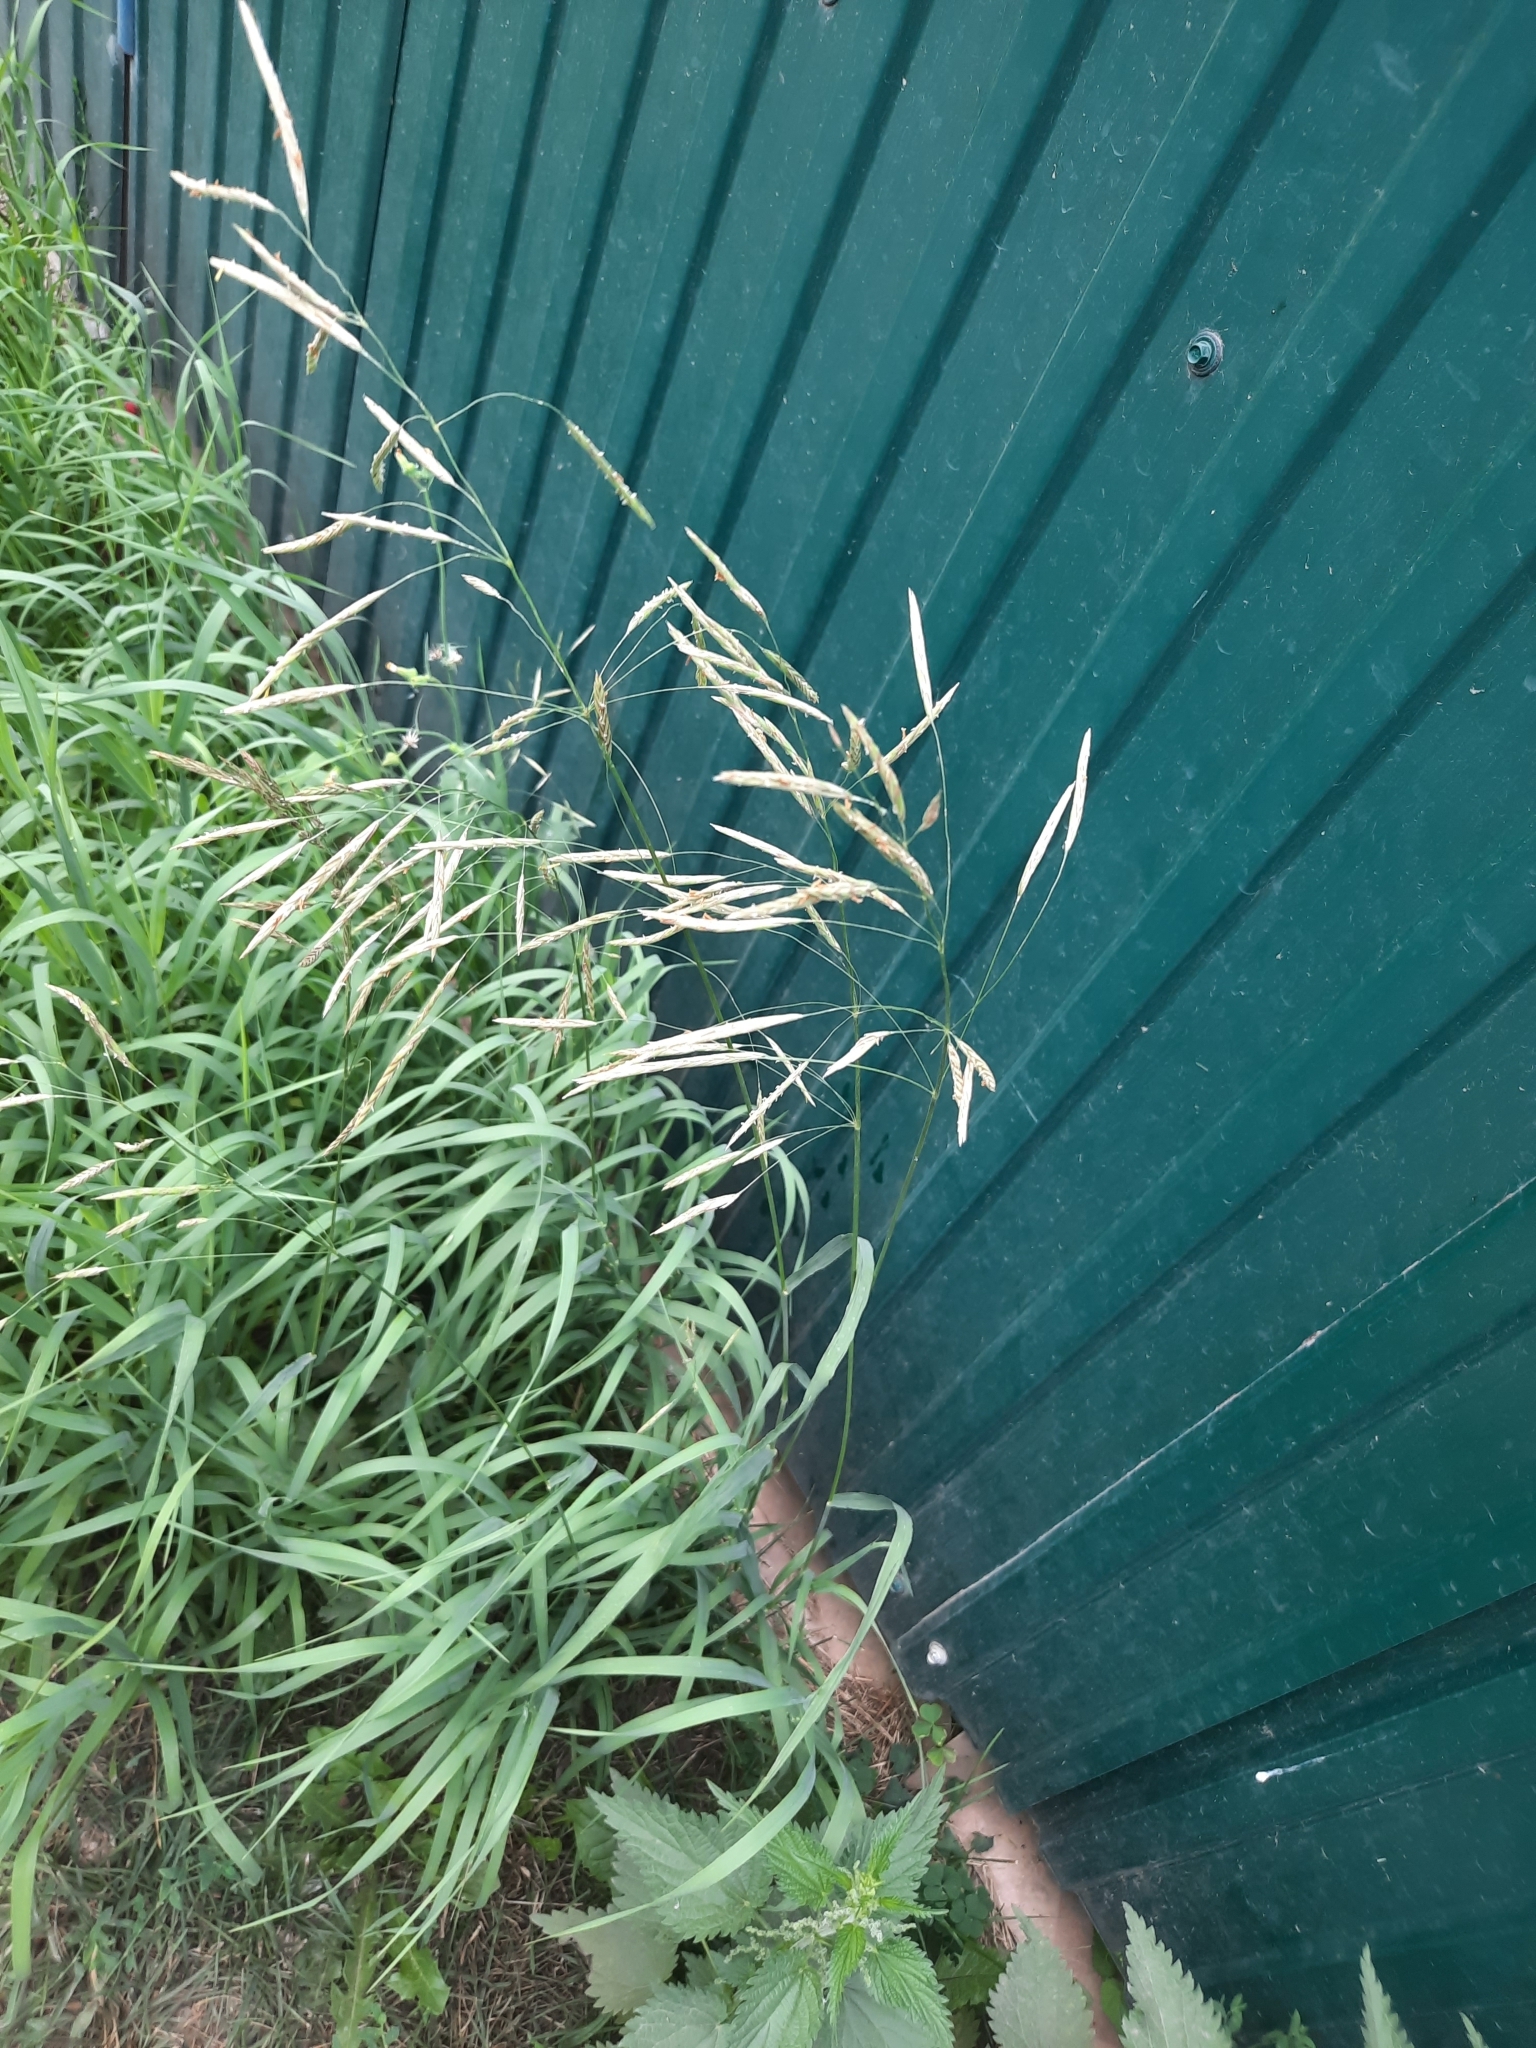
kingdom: Plantae
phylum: Tracheophyta
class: Liliopsida
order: Poales
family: Poaceae
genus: Bromus
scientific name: Bromus inermis
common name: Smooth brome
